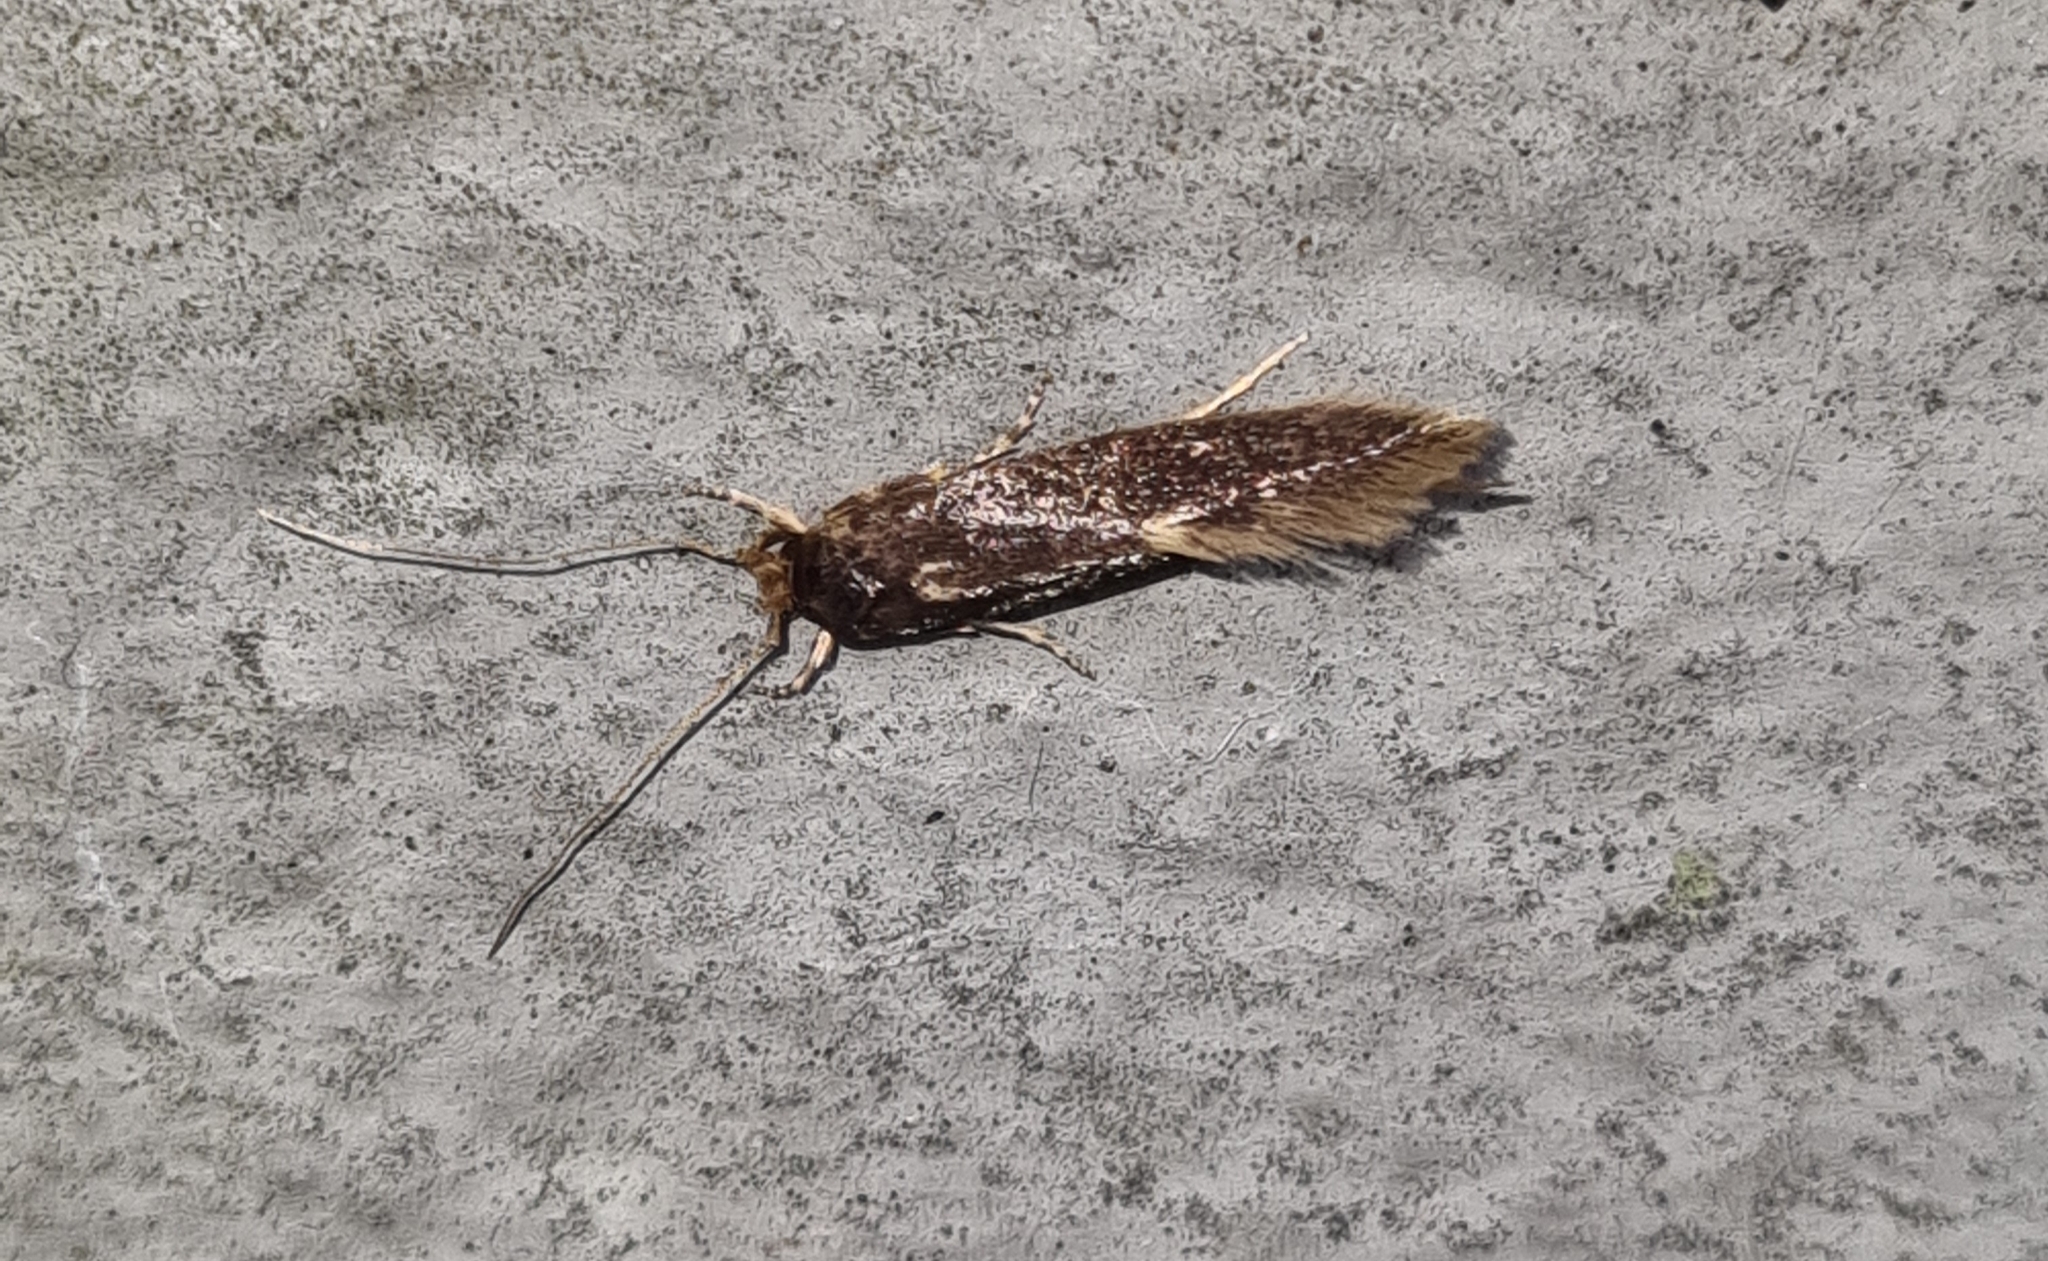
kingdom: Animalia
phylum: Arthropoda
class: Insecta
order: Lepidoptera
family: Tineidae
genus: Opogona
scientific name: Opogona omoscopa
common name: Moth
